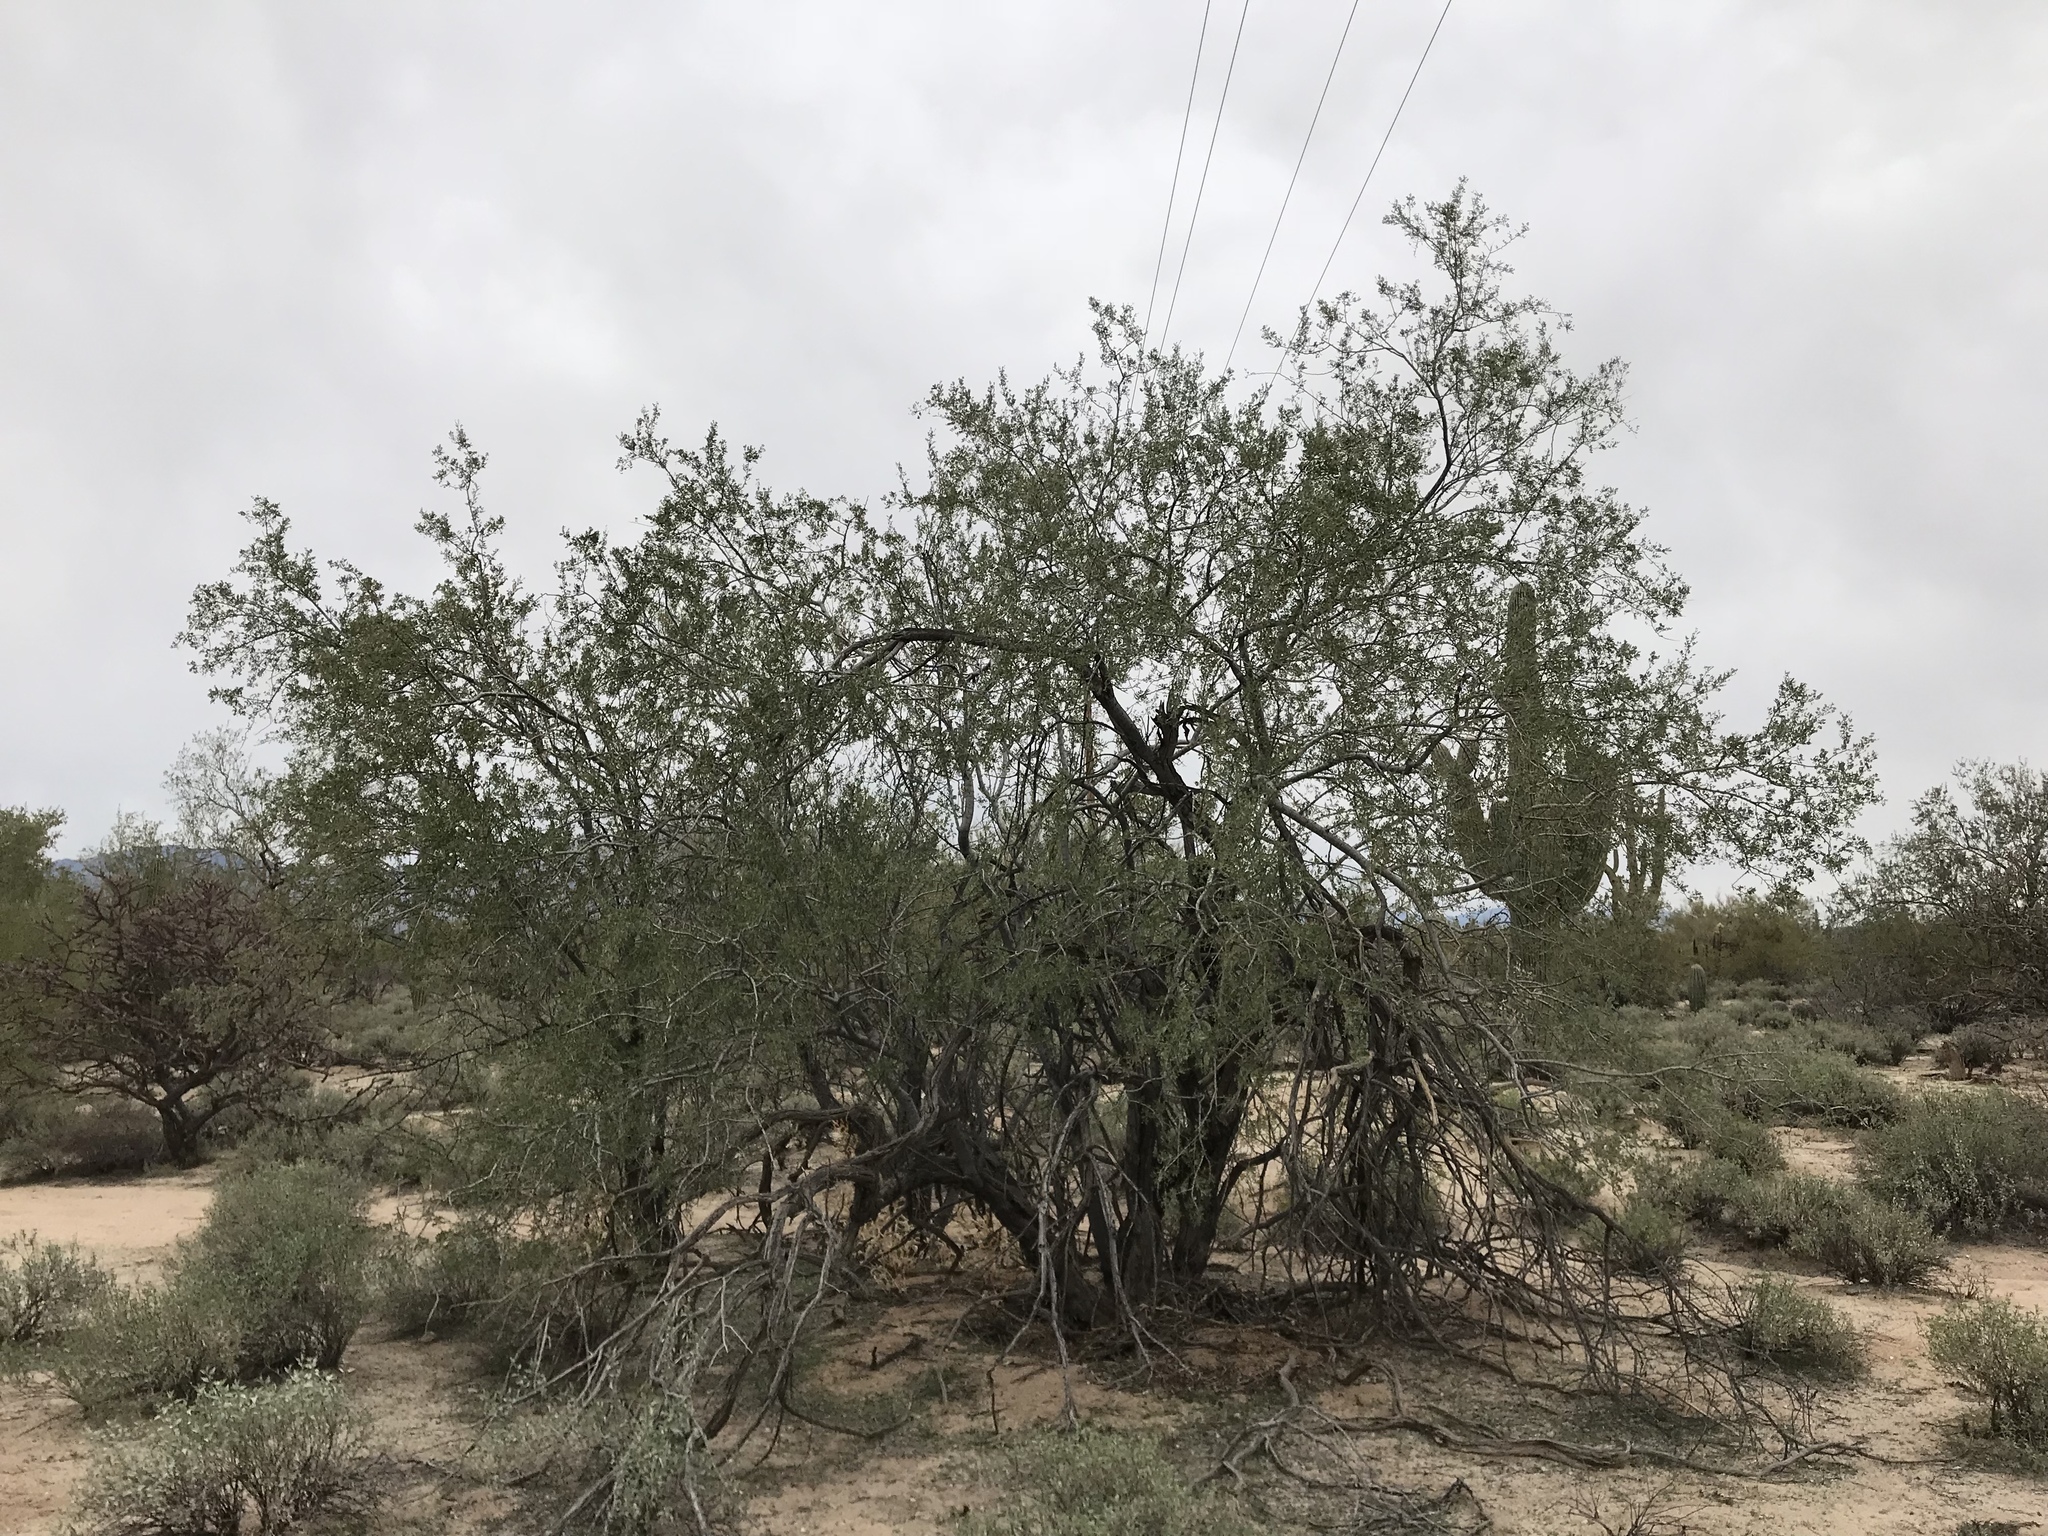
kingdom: Plantae
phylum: Tracheophyta
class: Magnoliopsida
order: Fabales
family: Fabaceae
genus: Olneya
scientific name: Olneya tesota
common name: Desert ironwood
